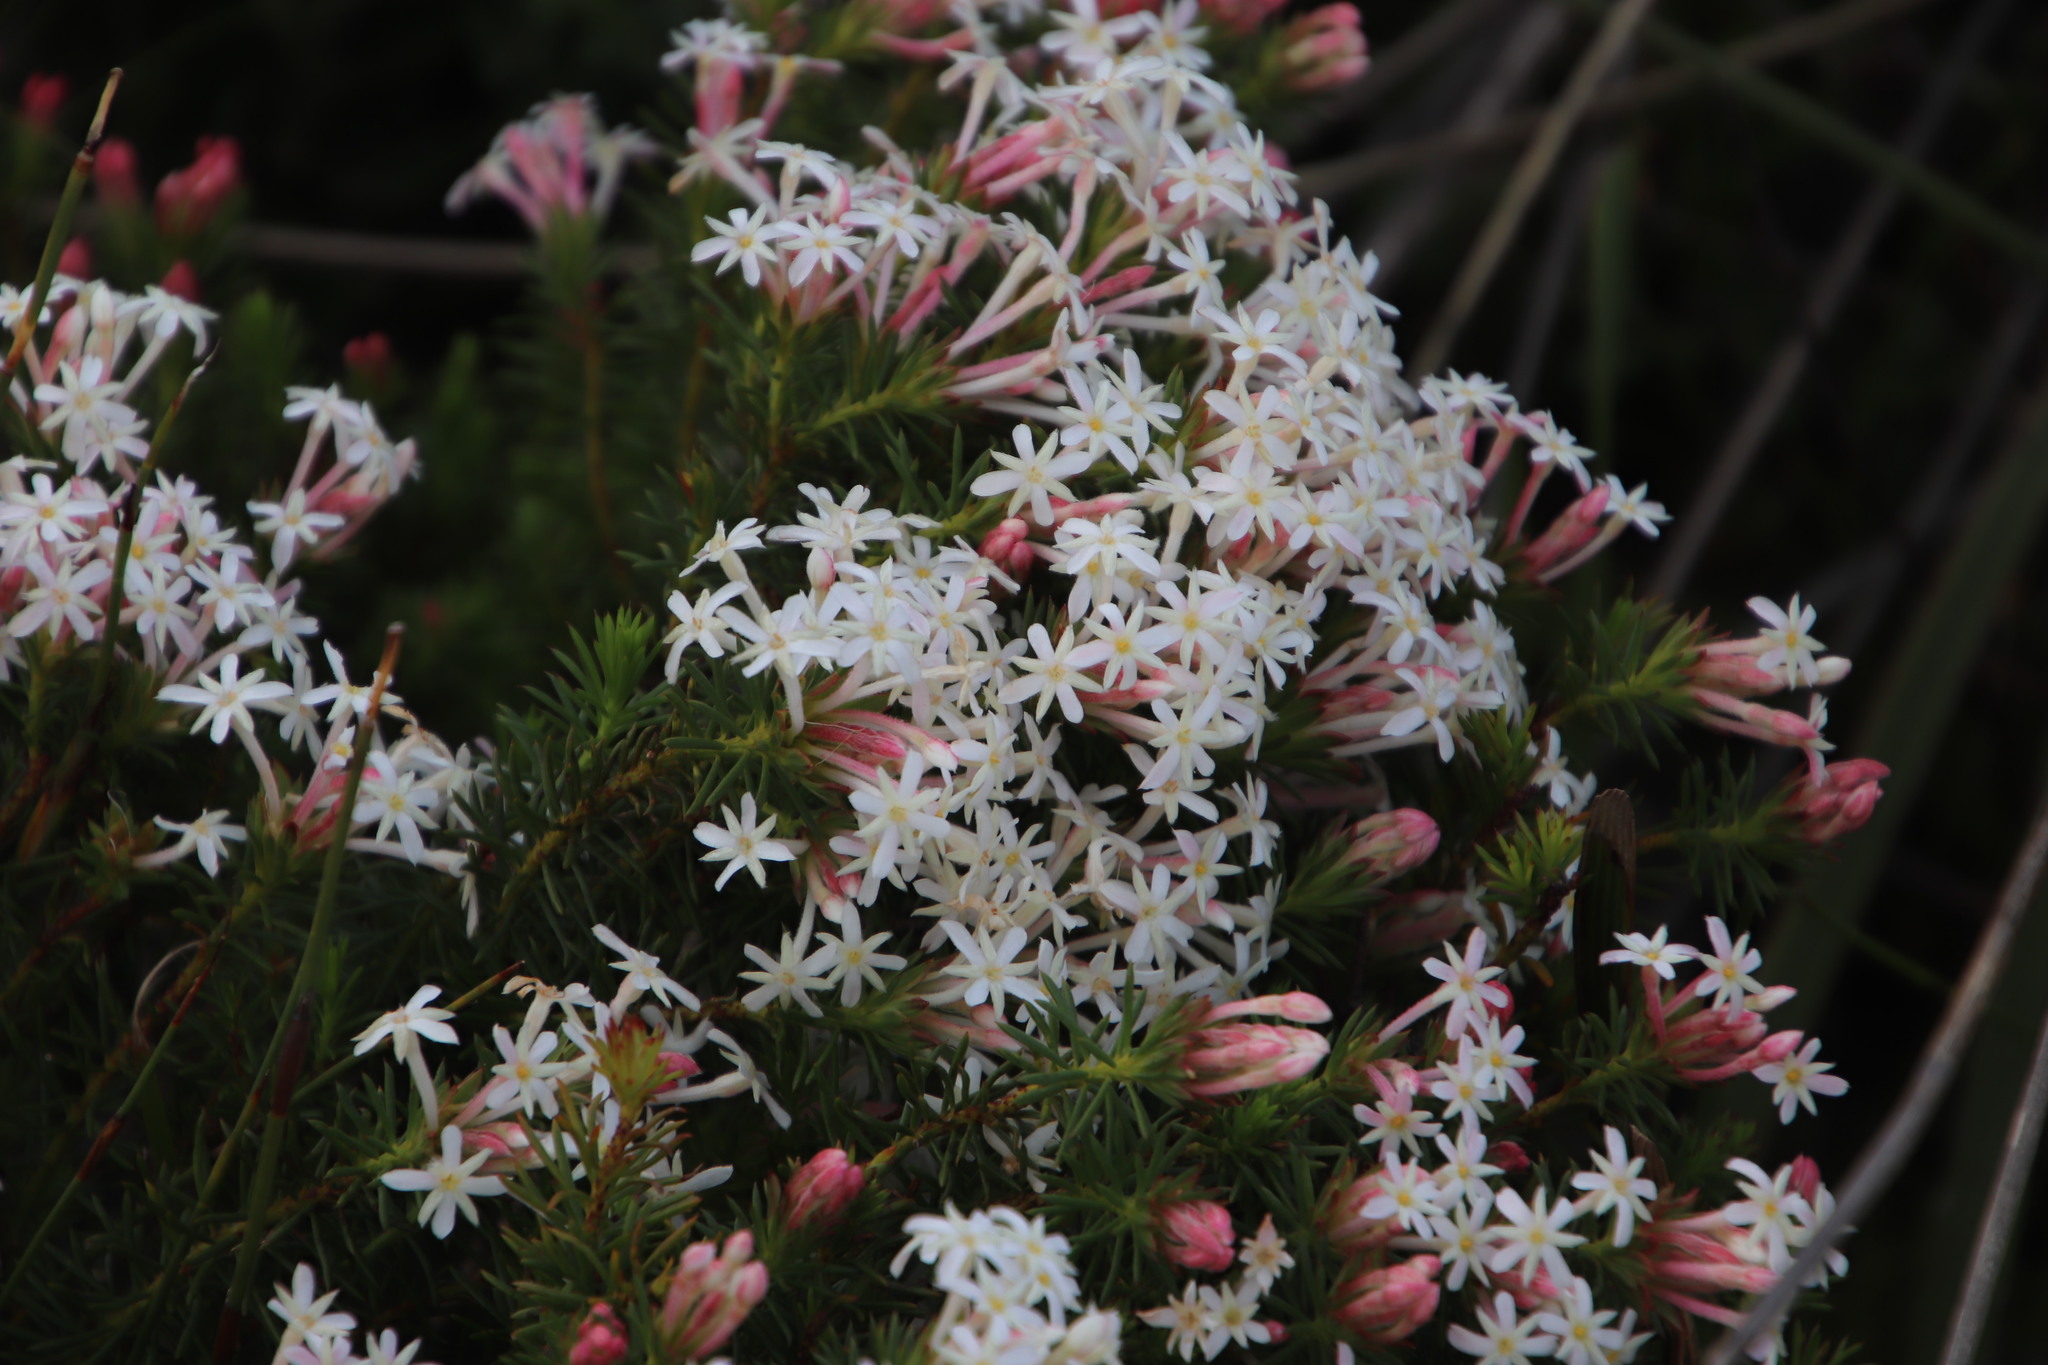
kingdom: Plantae
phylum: Tracheophyta
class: Magnoliopsida
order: Malvales
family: Thymelaeaceae
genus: Gnidia
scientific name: Gnidia pinifolia
